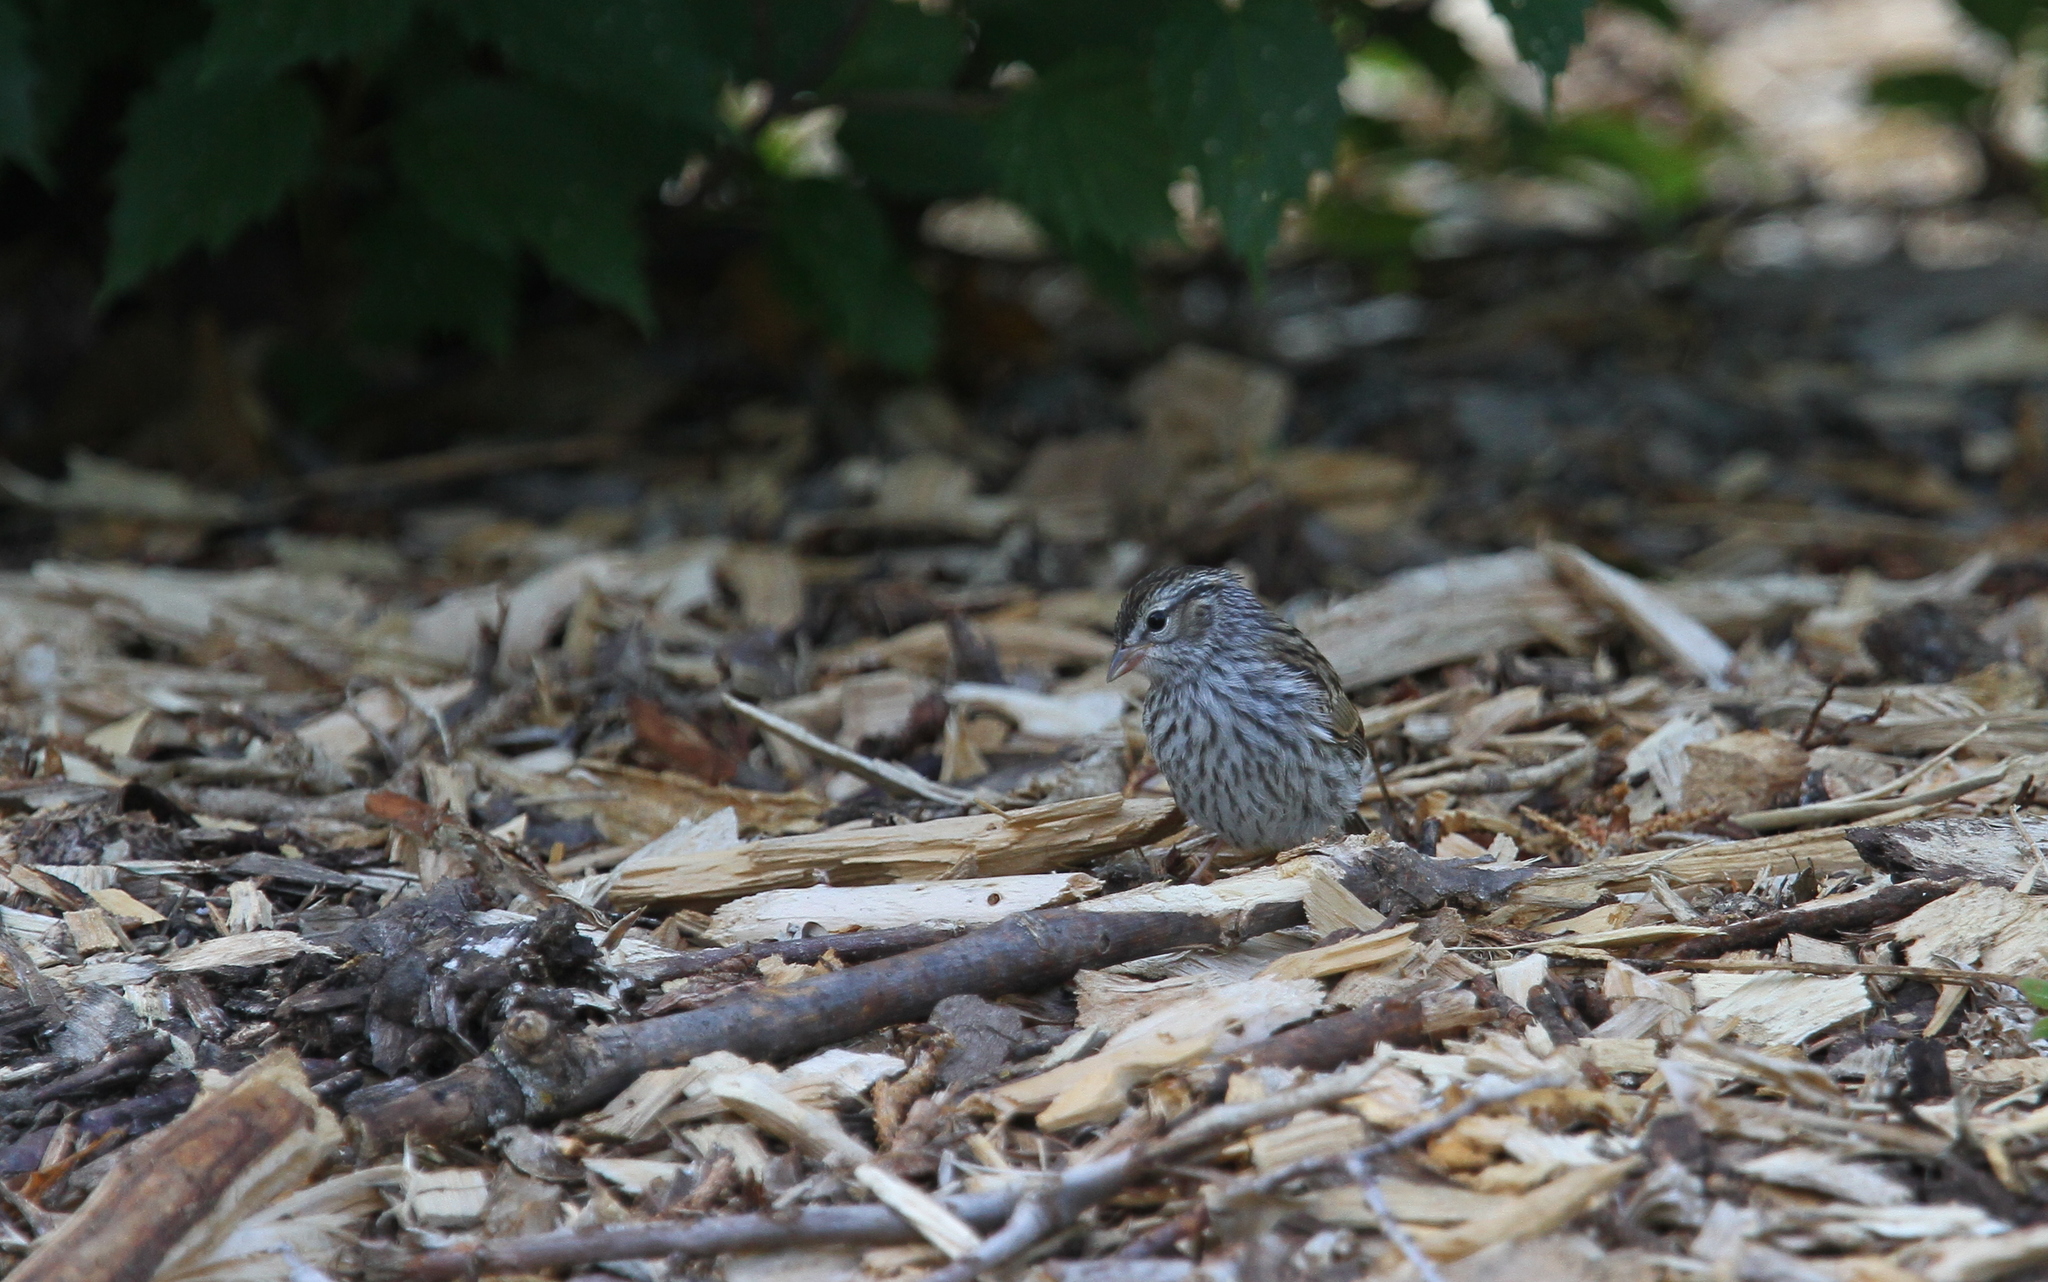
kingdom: Animalia
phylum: Chordata
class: Aves
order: Passeriformes
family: Passerellidae
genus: Spizella
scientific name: Spizella passerina
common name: Chipping sparrow
